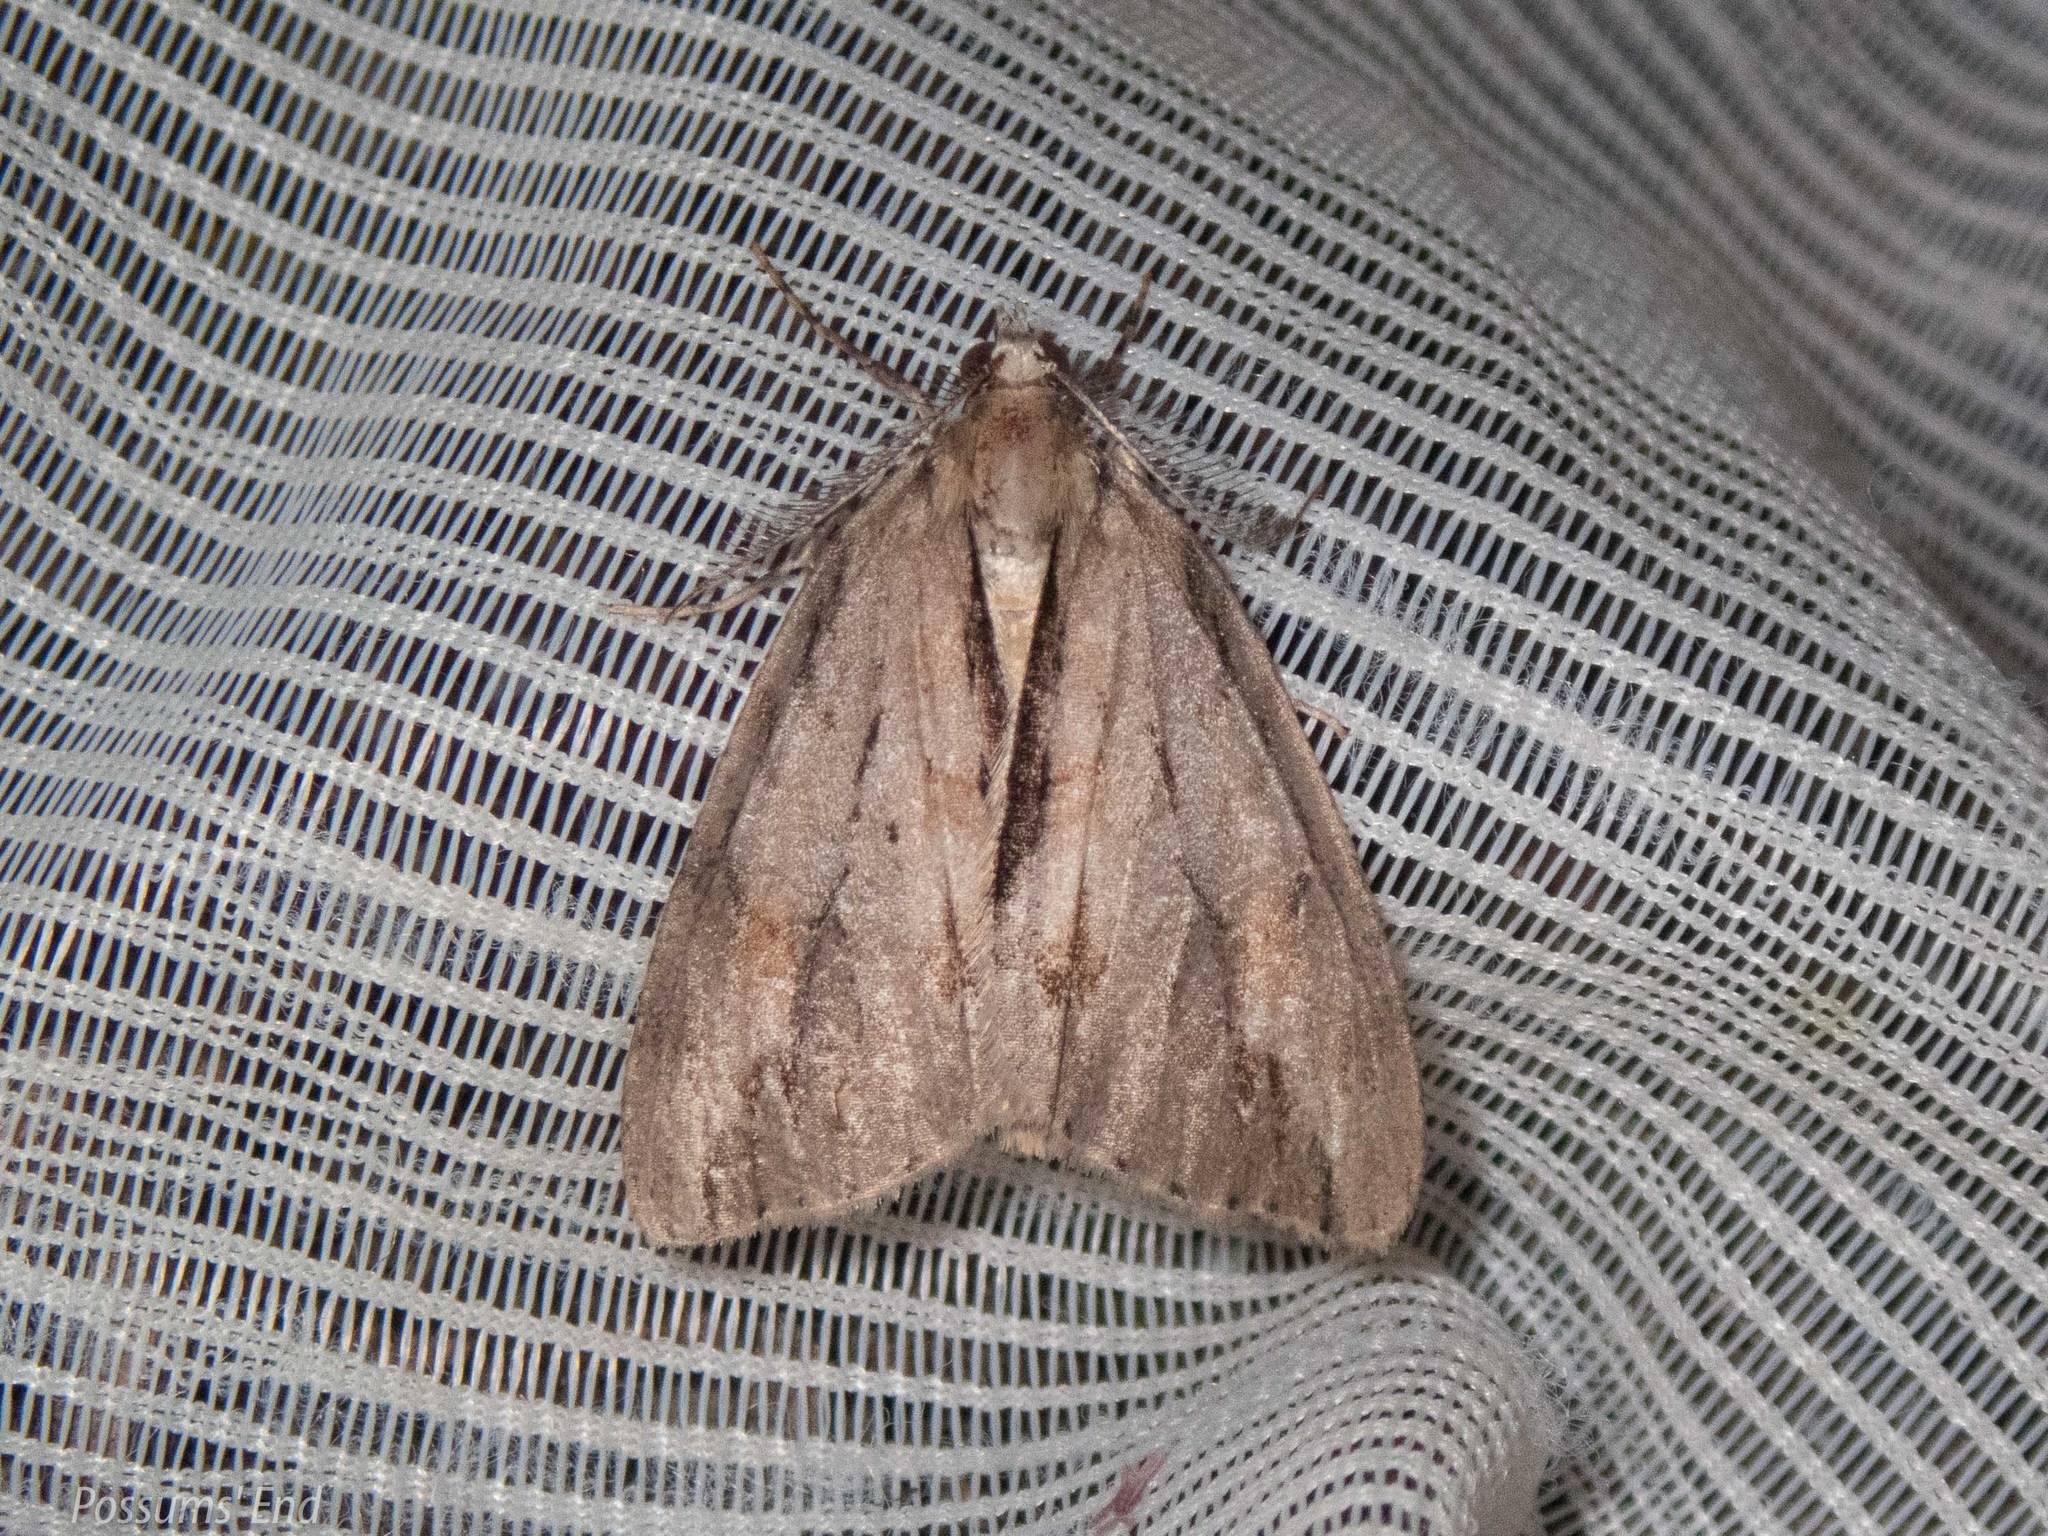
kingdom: Animalia
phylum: Arthropoda
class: Insecta
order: Lepidoptera
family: Geometridae
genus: Pseudocoremia
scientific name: Pseudocoremia lupinata
